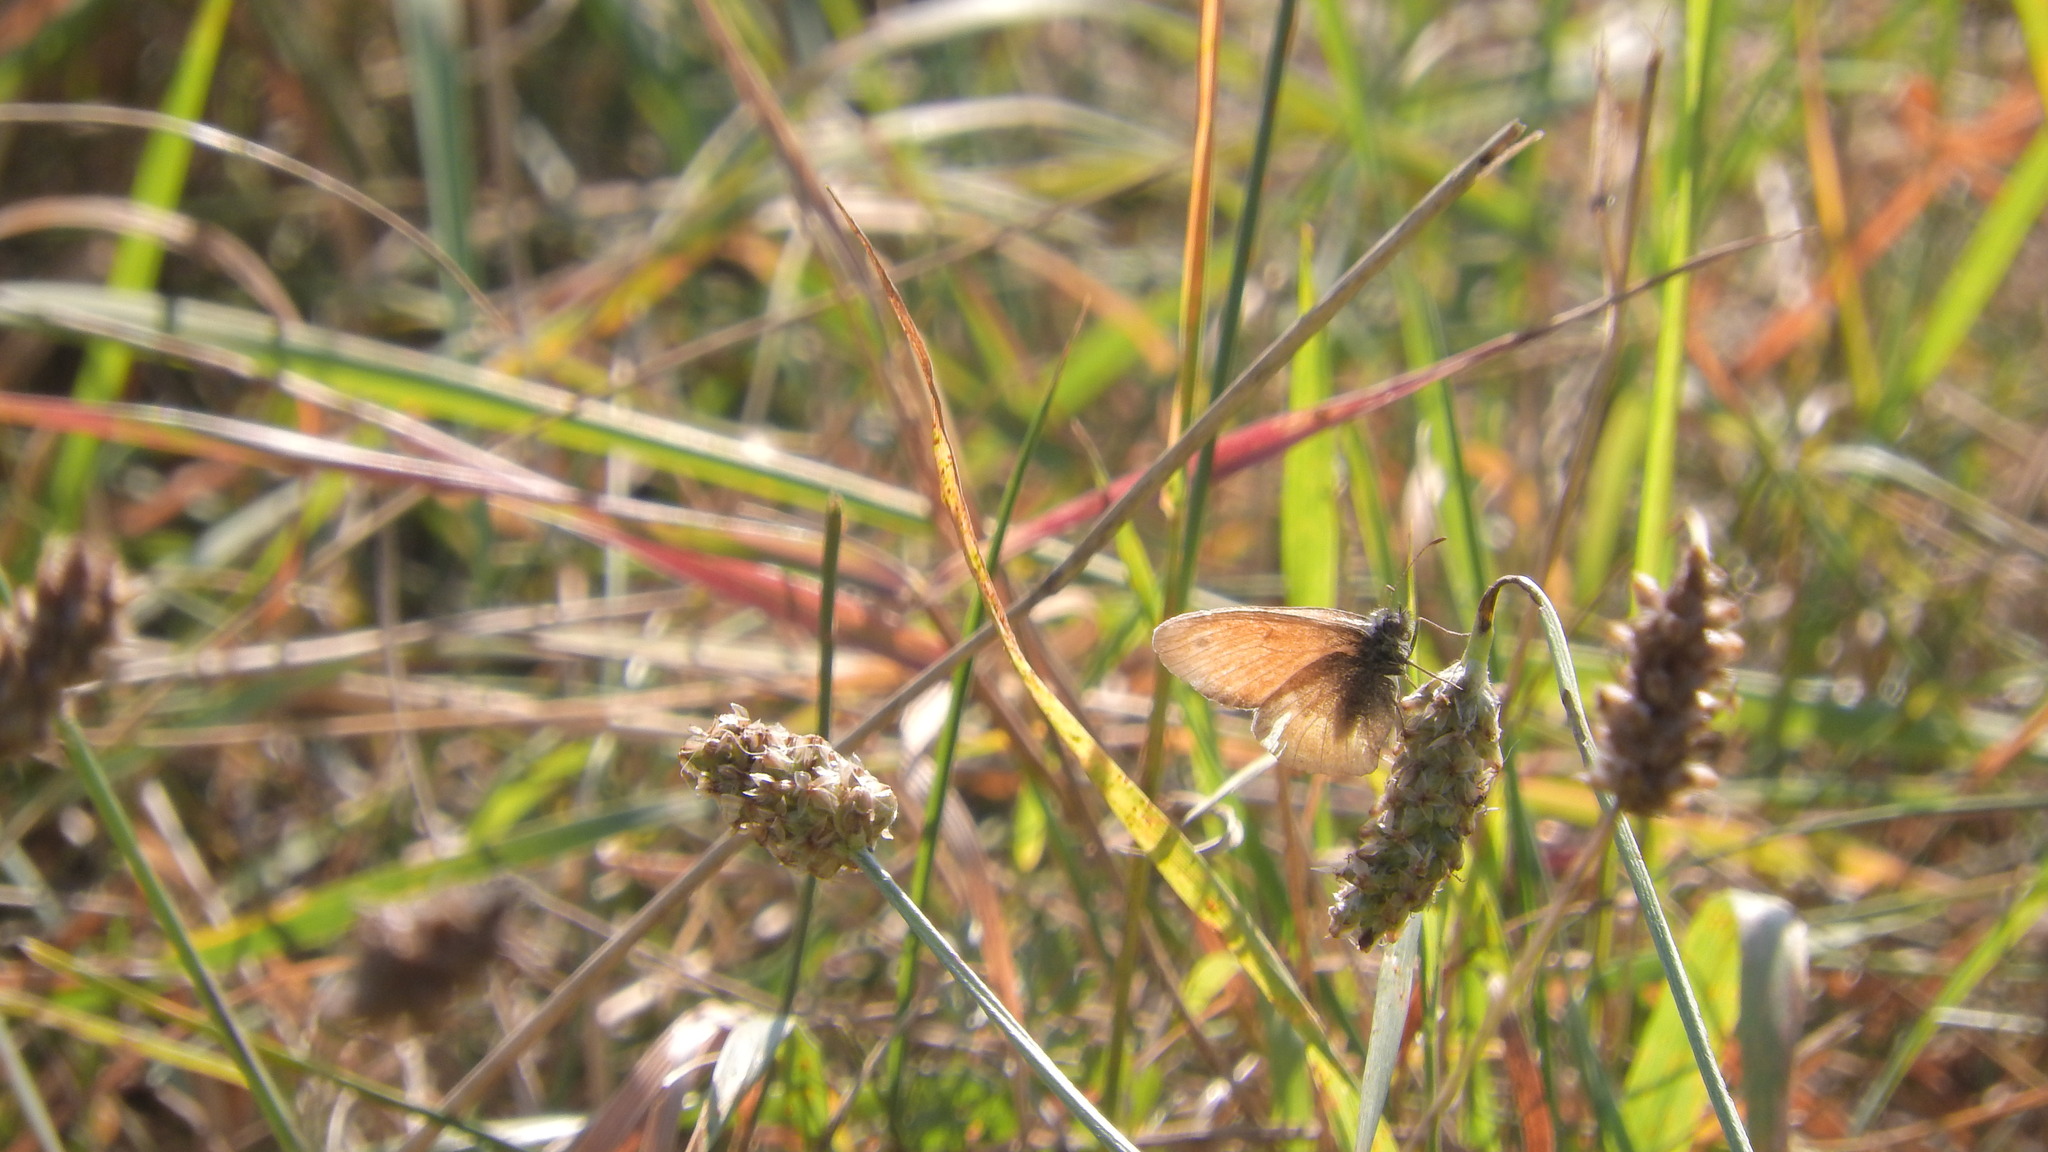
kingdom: Animalia
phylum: Arthropoda
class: Insecta
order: Lepidoptera
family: Nymphalidae
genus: Coenonympha
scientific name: Coenonympha pamphilus
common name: Small heath
